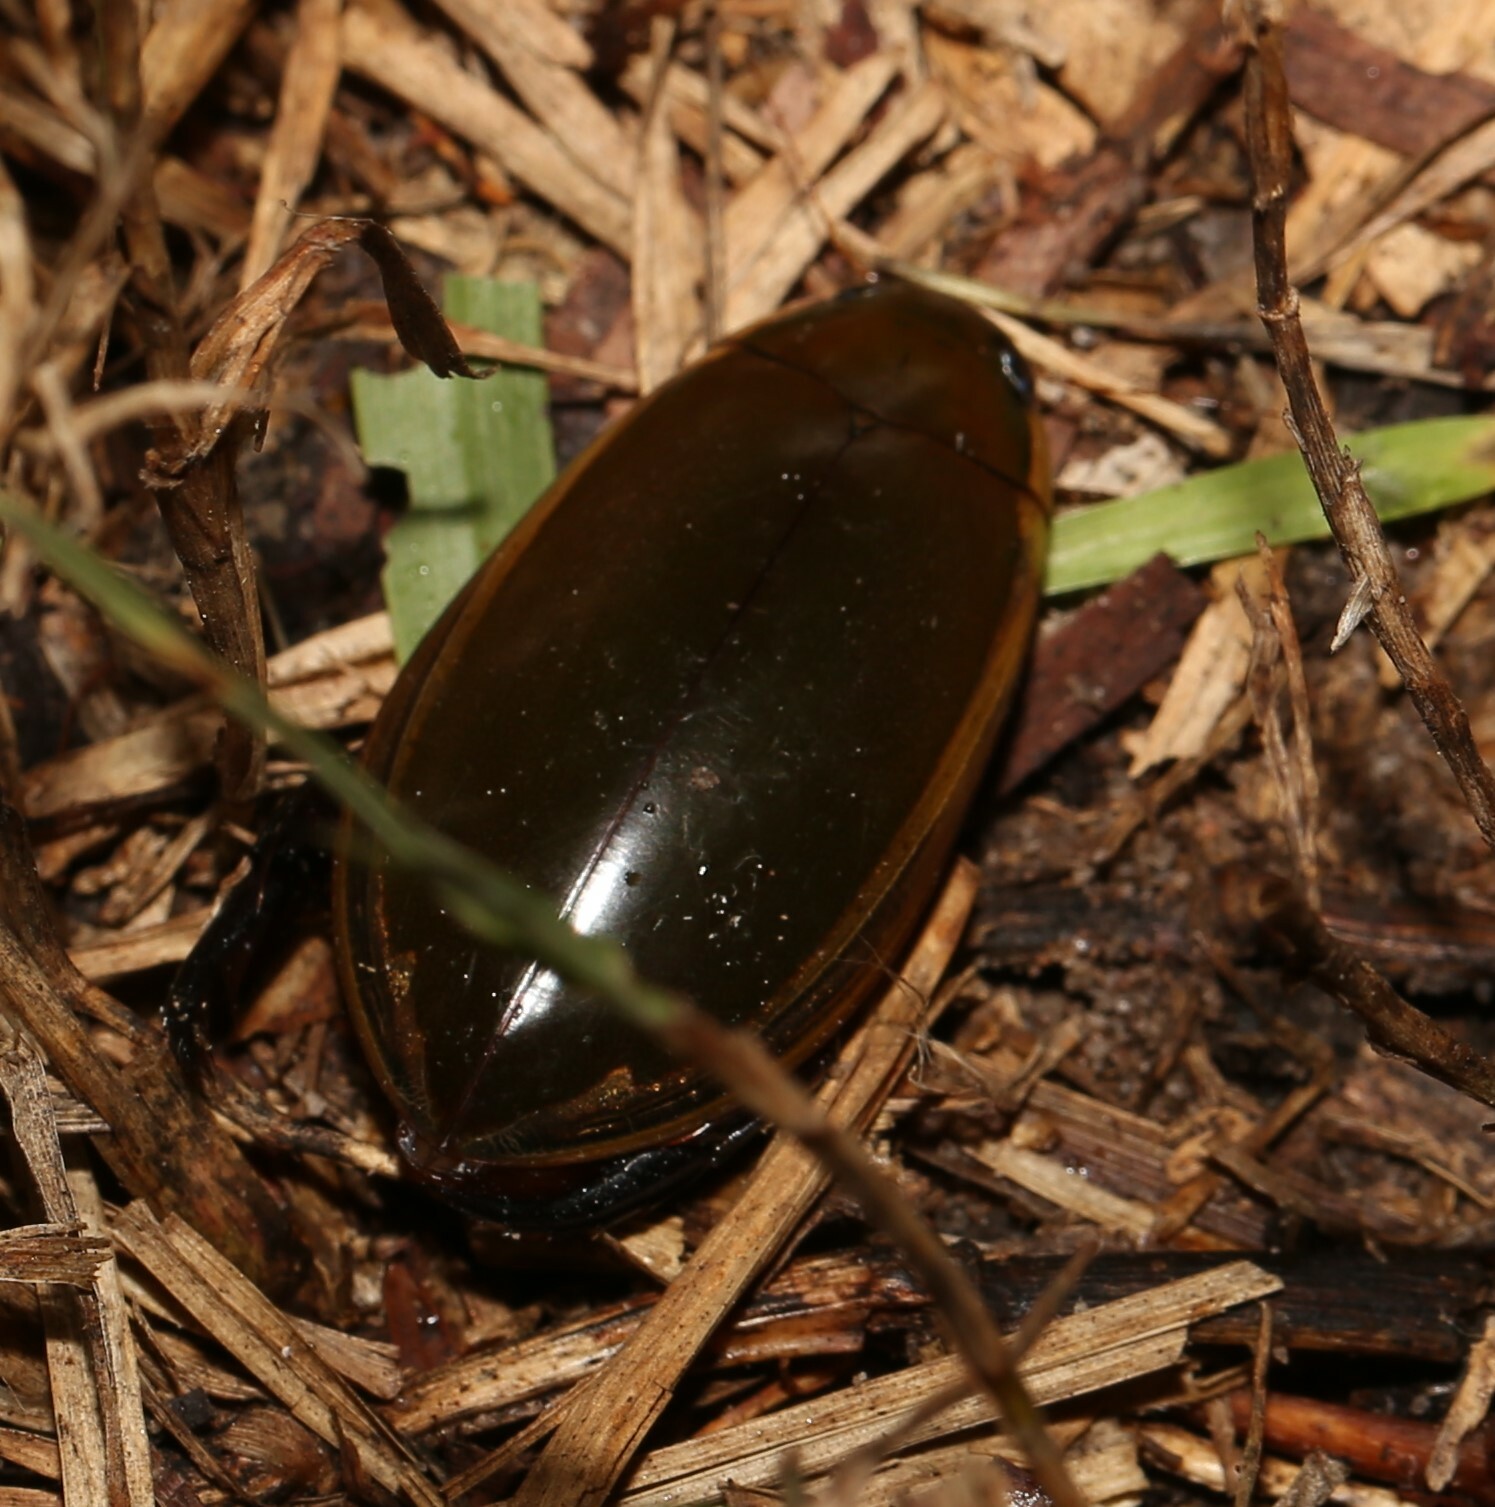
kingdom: Animalia
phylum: Arthropoda
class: Insecta
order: Coleoptera
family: Dytiscidae
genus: Cybister
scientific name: Cybister tripunctatus
